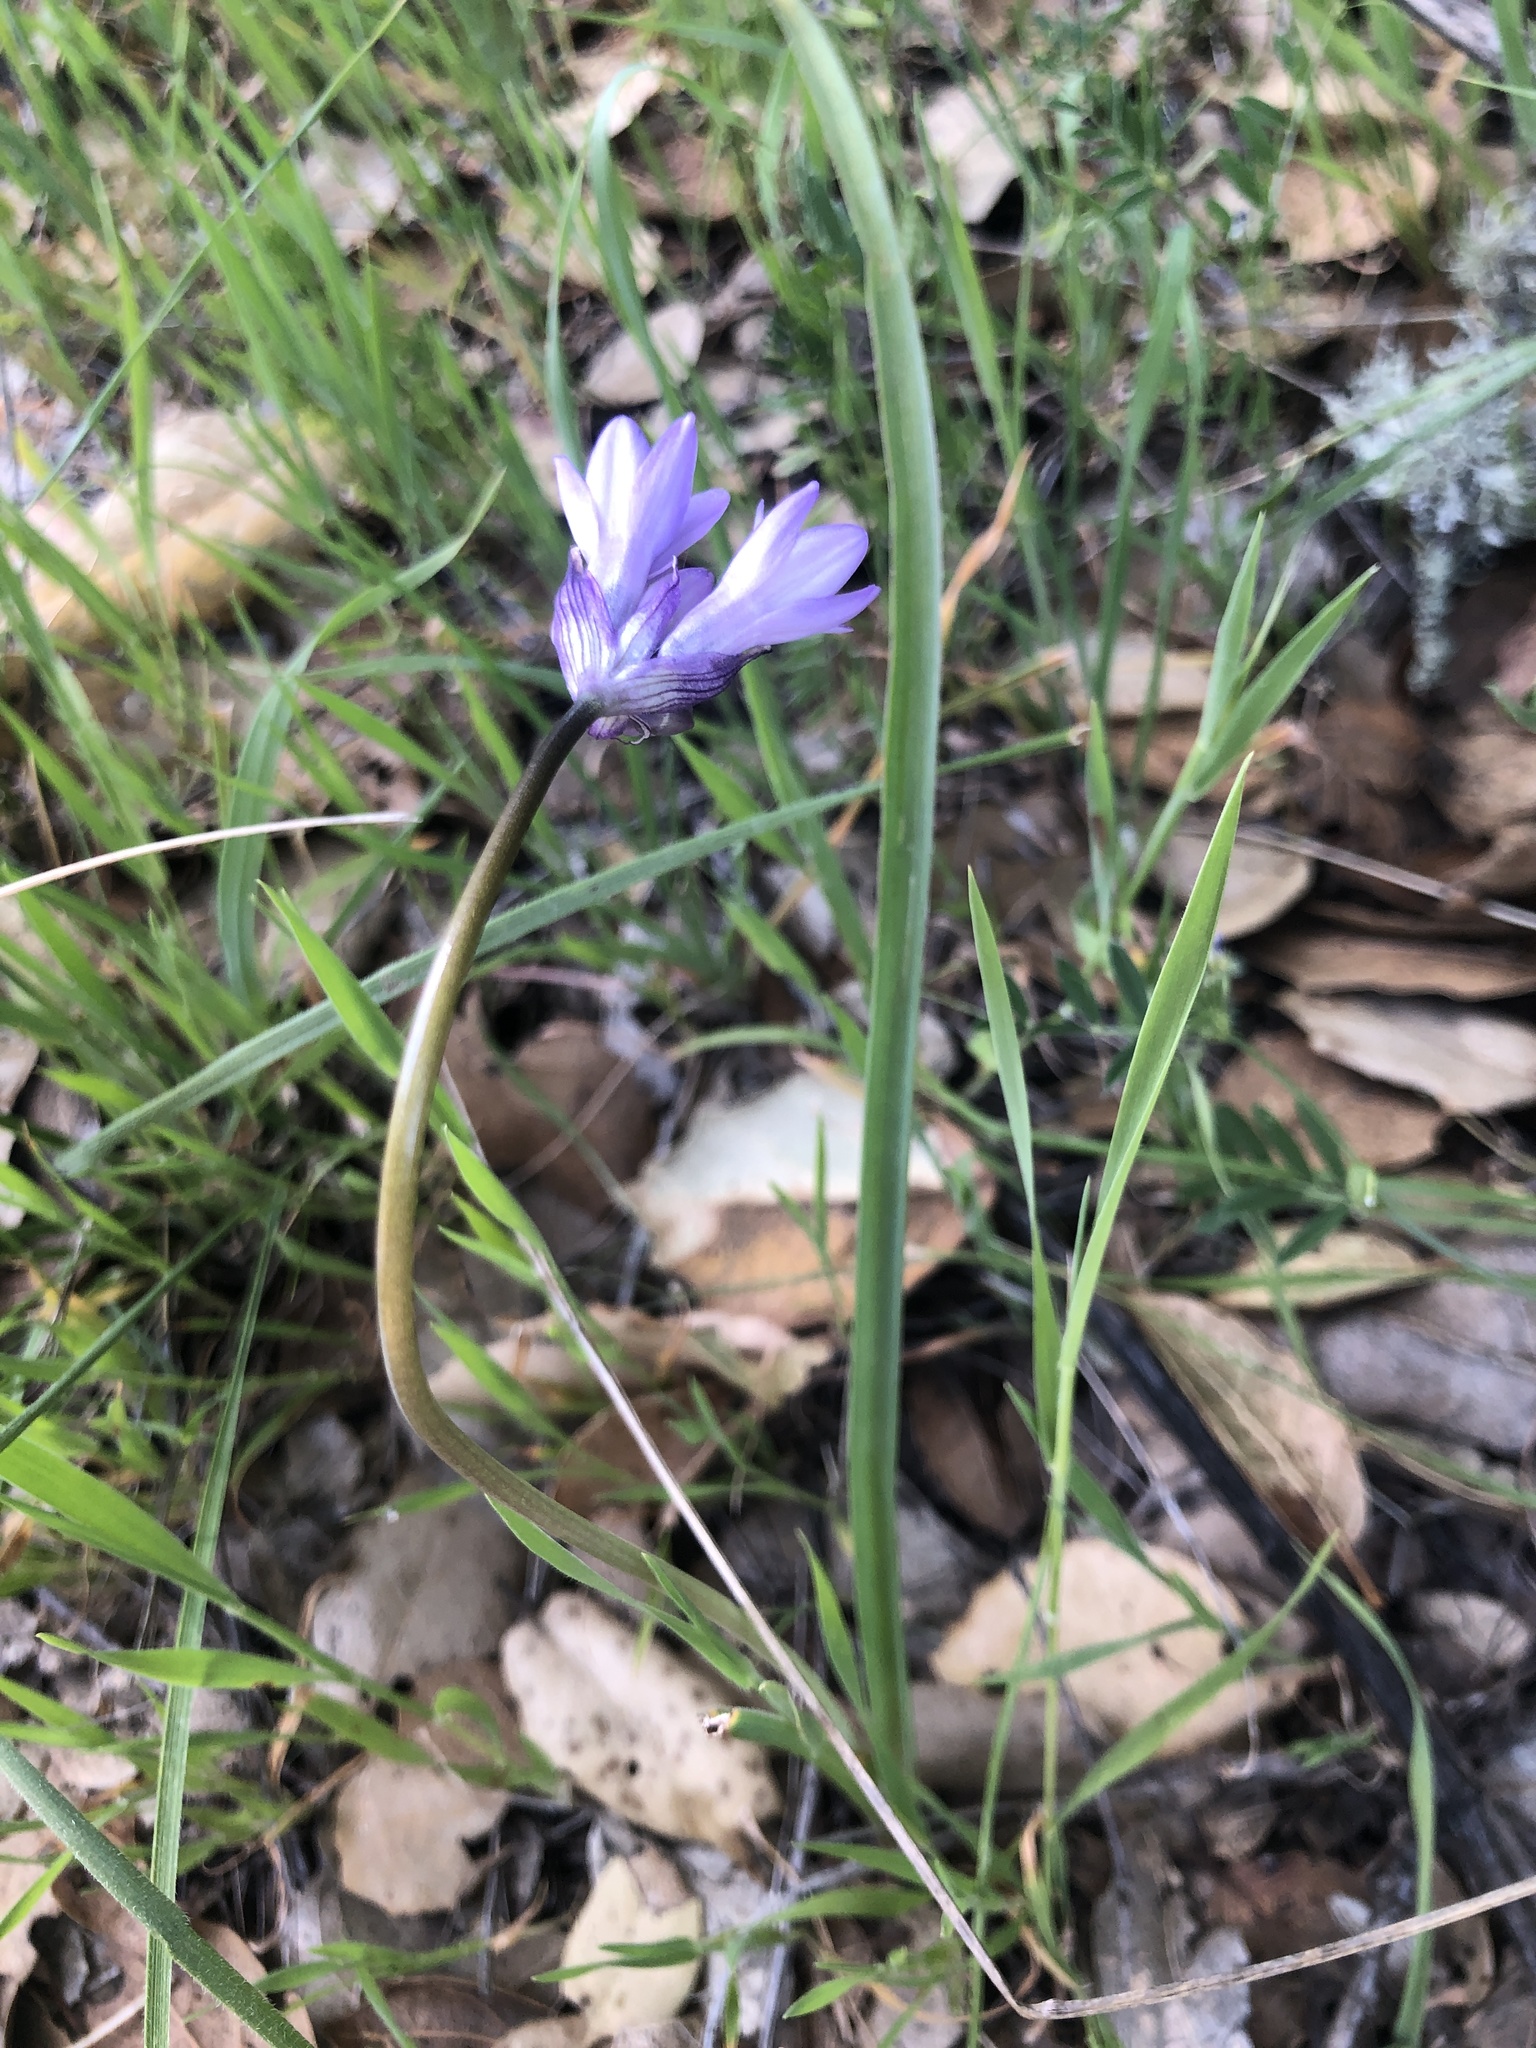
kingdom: Plantae
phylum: Tracheophyta
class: Liliopsida
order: Asparagales
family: Asparagaceae
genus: Dipterostemon
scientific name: Dipterostemon capitatus
